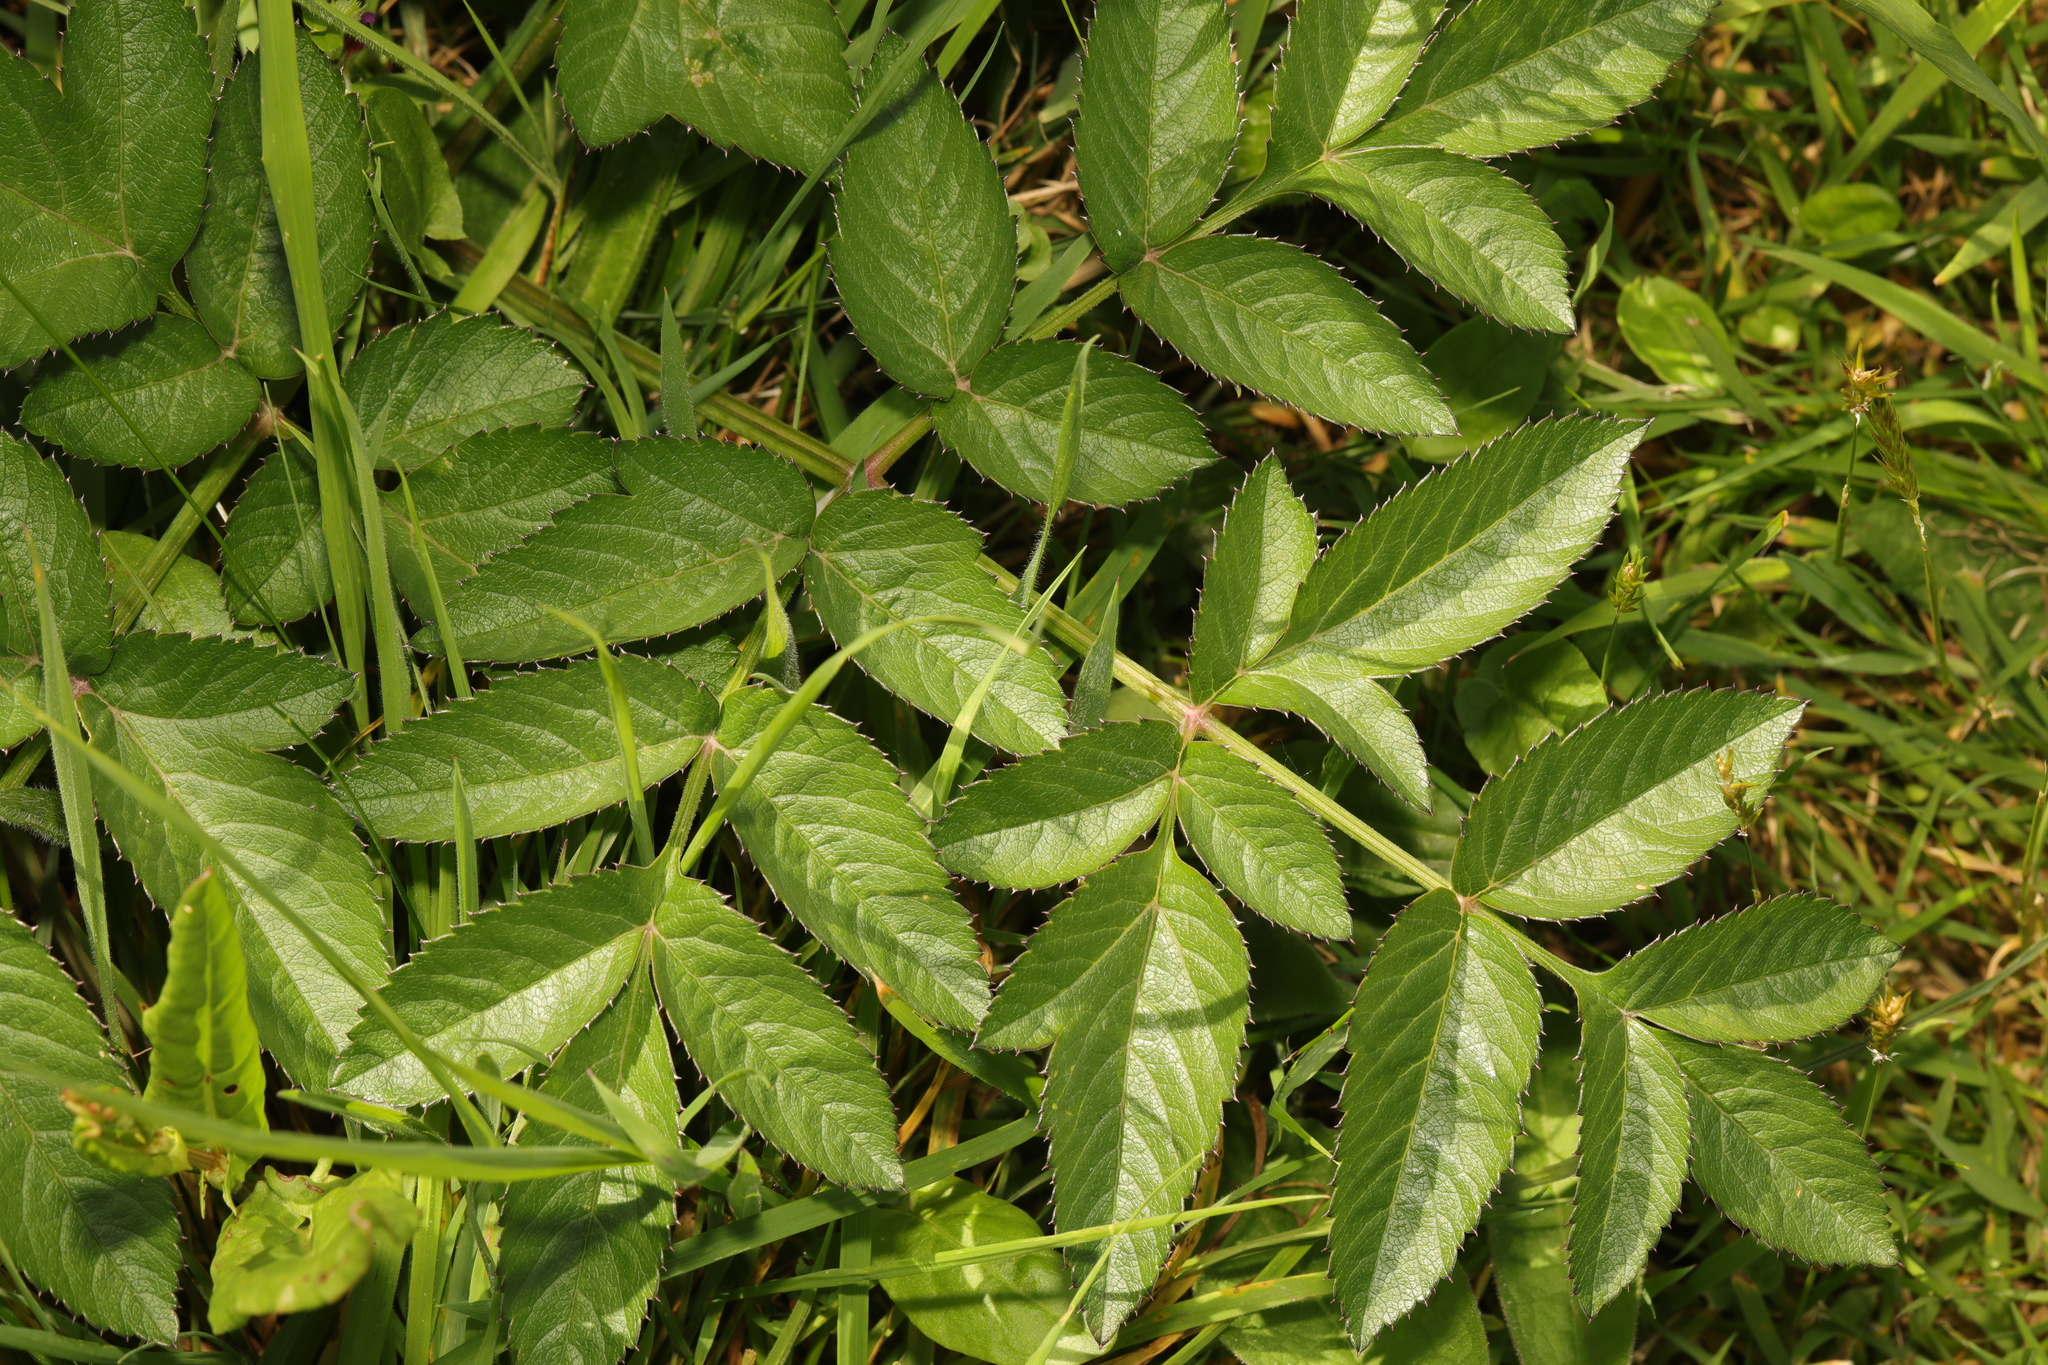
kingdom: Plantae
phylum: Tracheophyta
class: Magnoliopsida
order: Apiales
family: Apiaceae
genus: Angelica
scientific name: Angelica sylvestris
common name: Wild angelica
